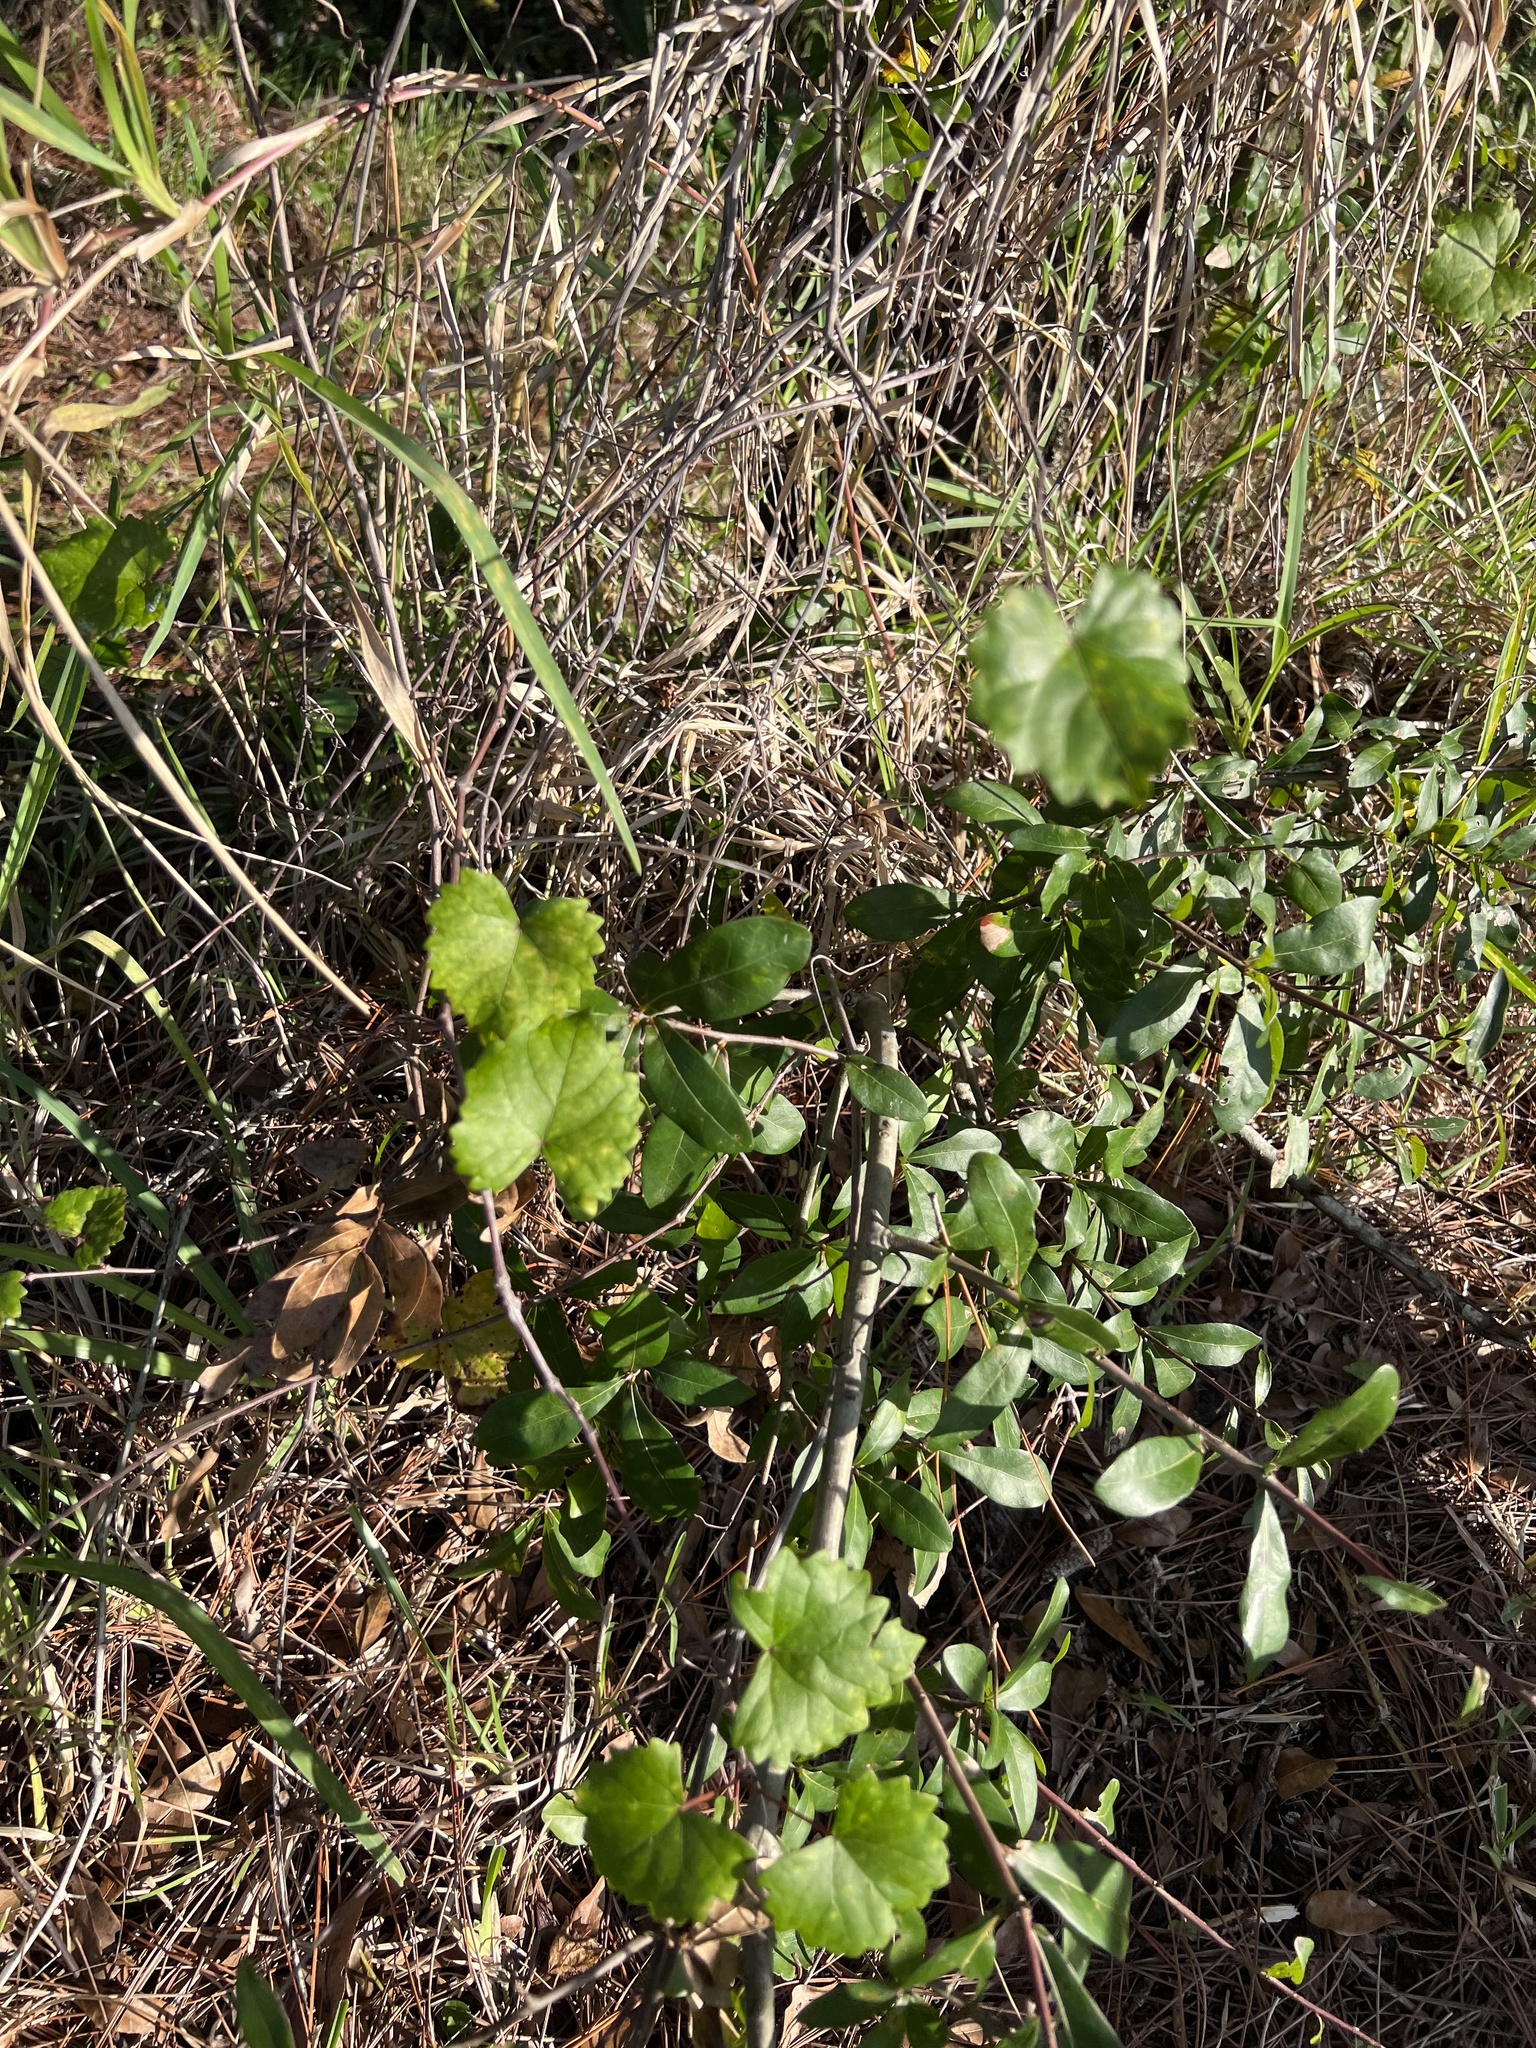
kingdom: Plantae
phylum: Tracheophyta
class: Magnoliopsida
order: Vitales
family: Vitaceae
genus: Vitis
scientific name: Vitis rotundifolia
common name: Muscadine grape
